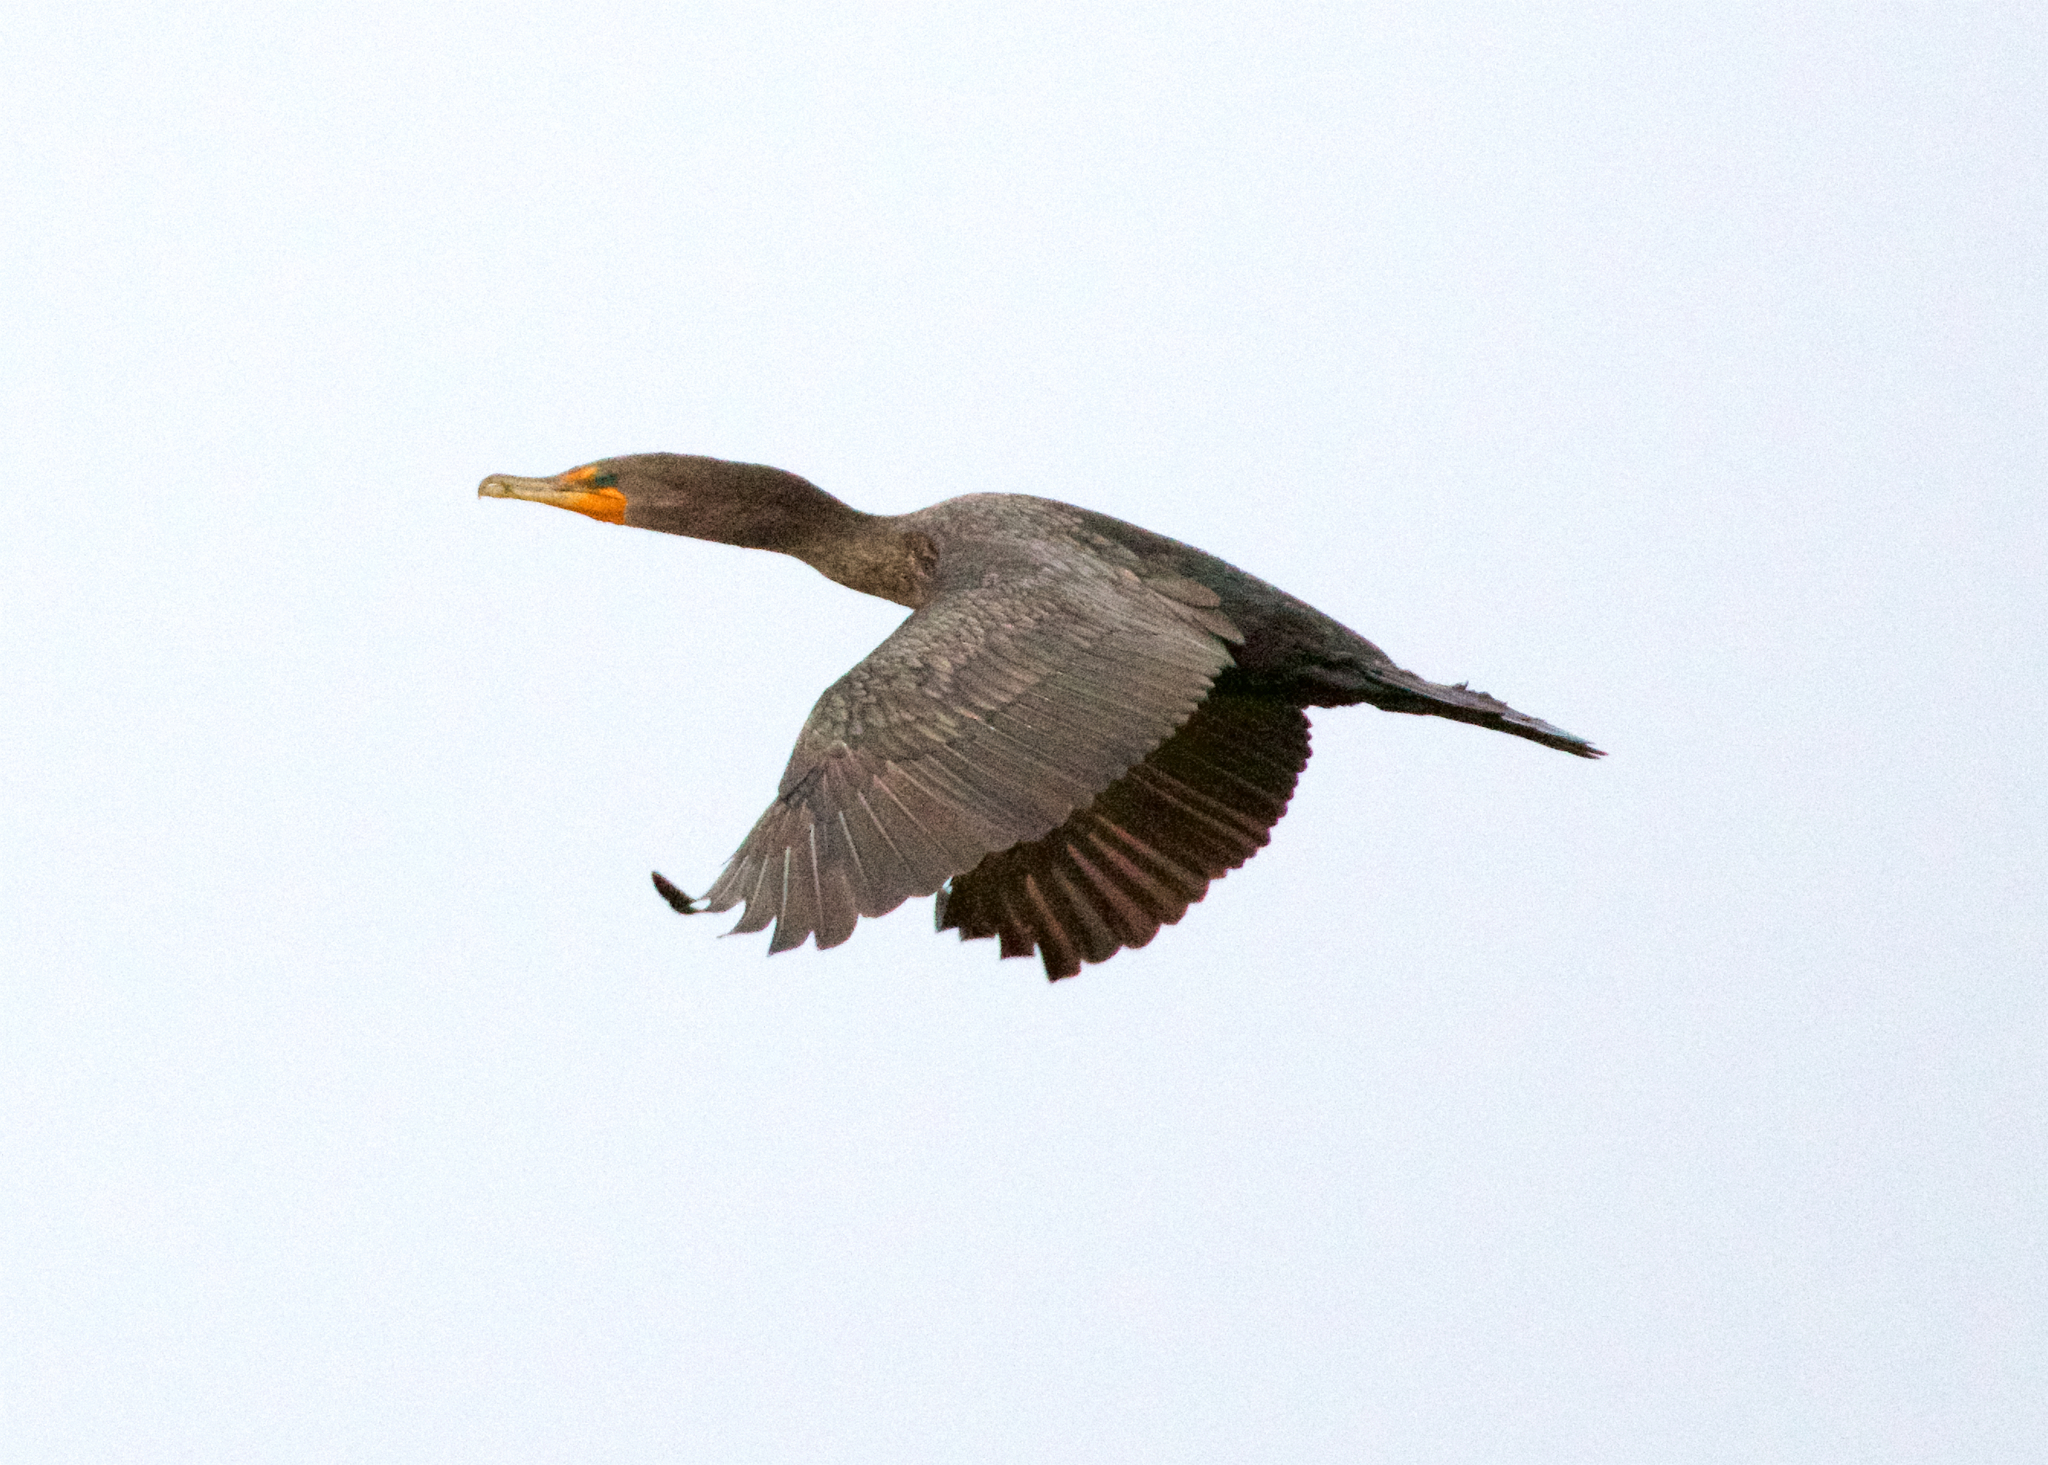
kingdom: Animalia
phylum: Chordata
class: Aves
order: Suliformes
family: Phalacrocoracidae
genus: Phalacrocorax
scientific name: Phalacrocorax auritus
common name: Double-crested cormorant
